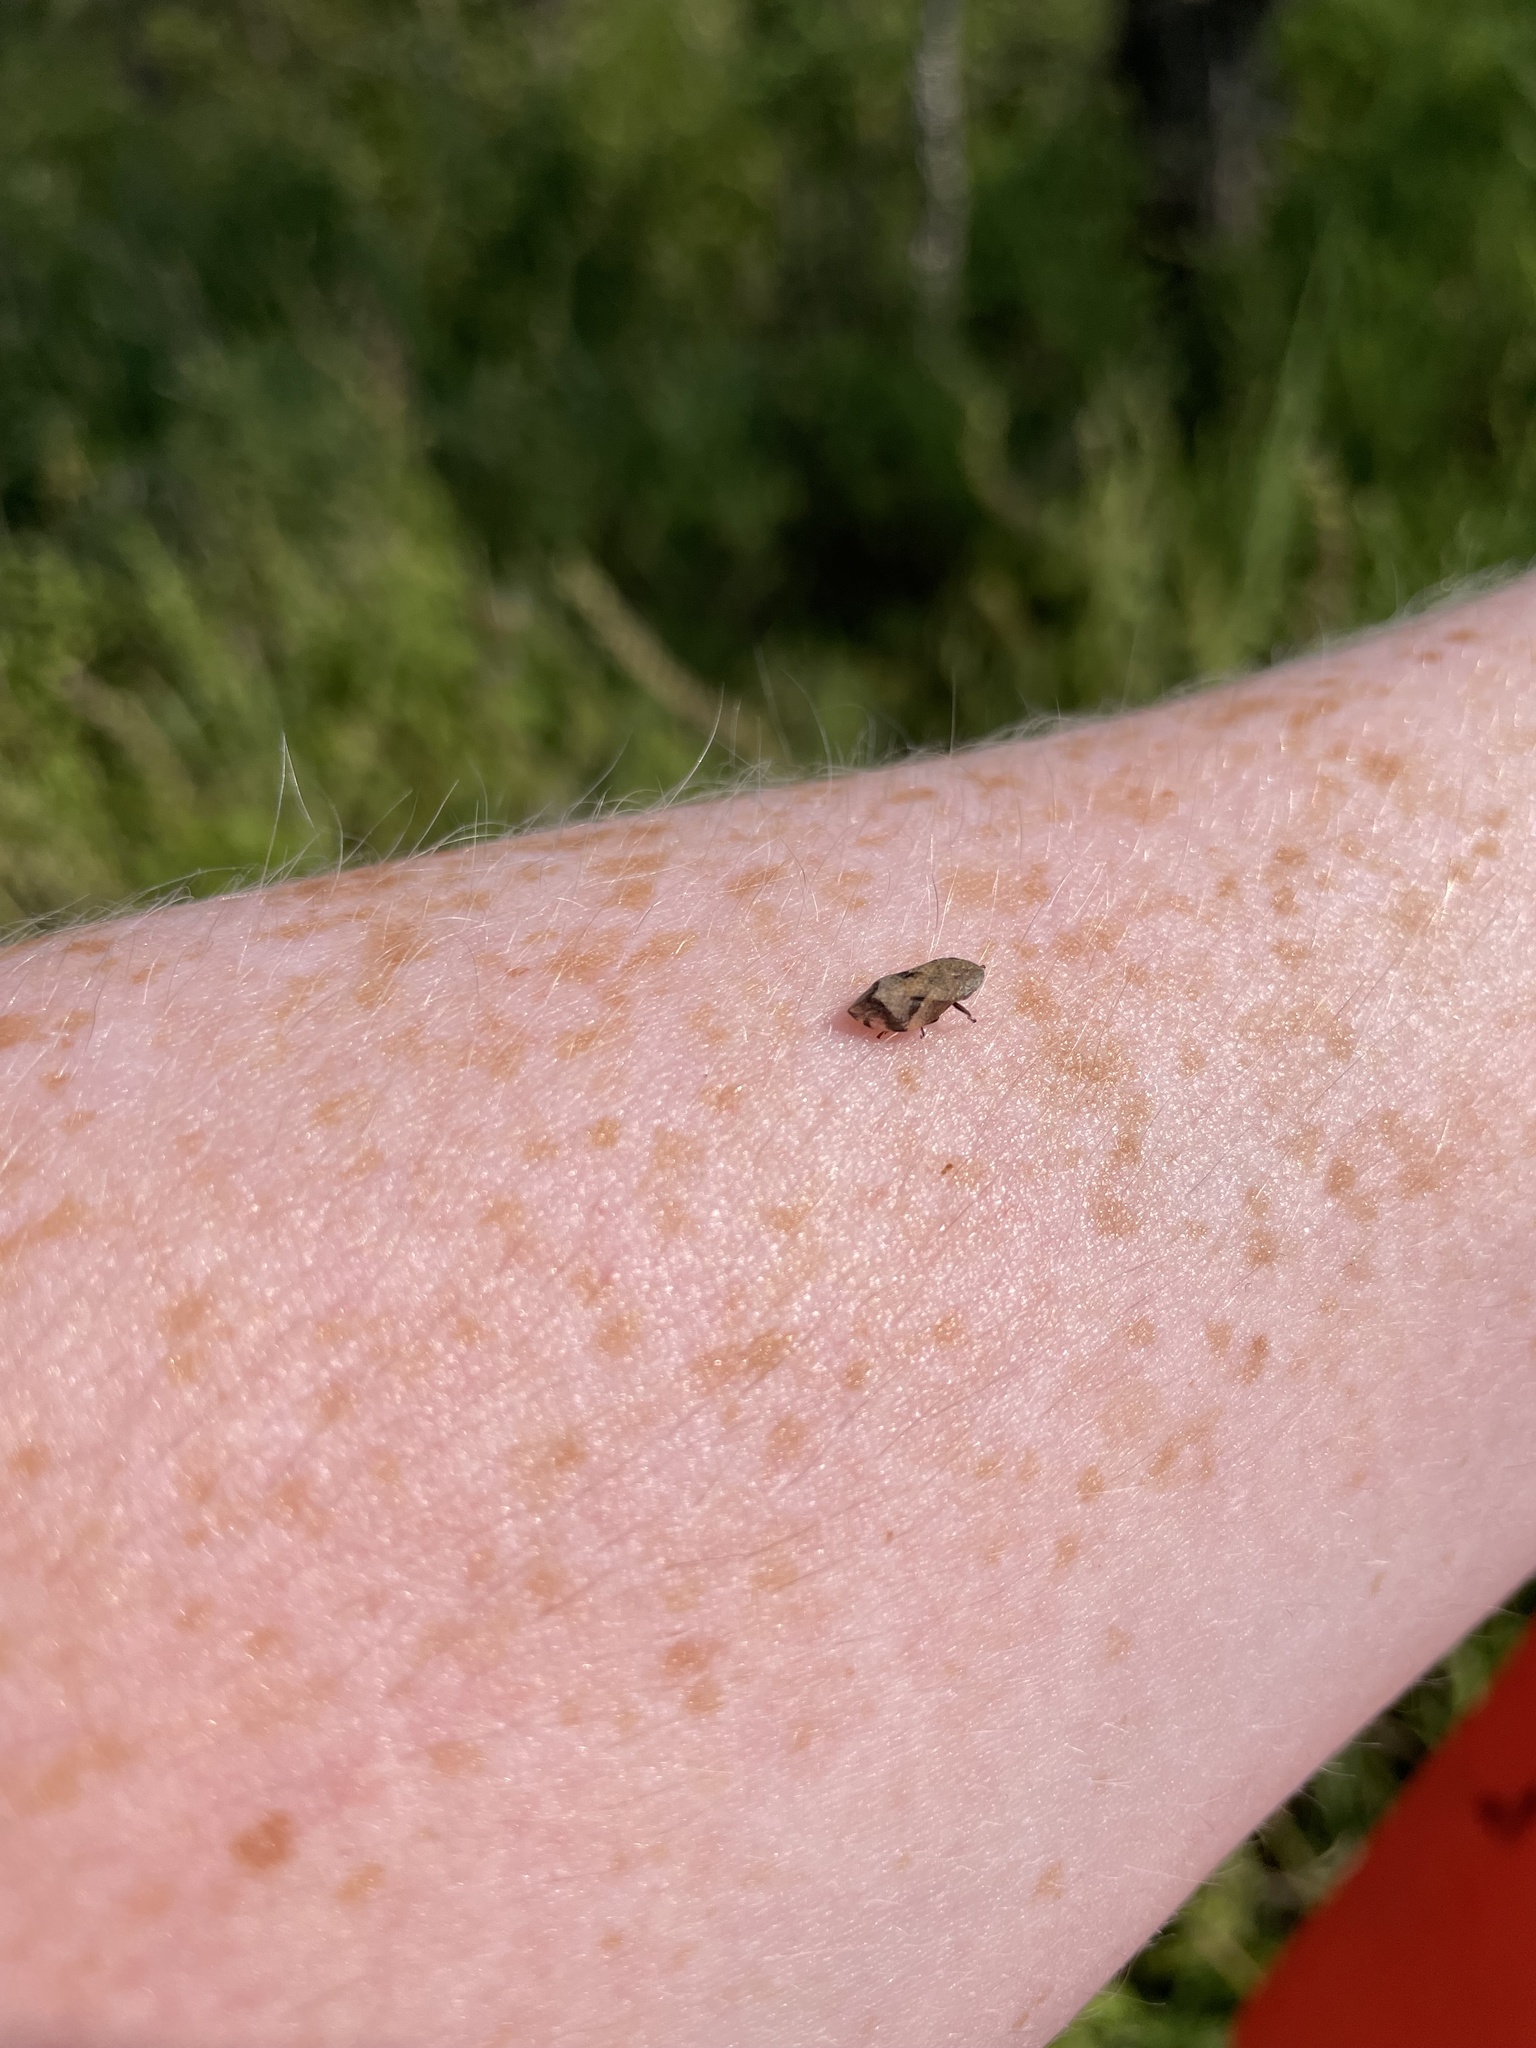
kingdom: Animalia
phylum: Arthropoda
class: Insecta
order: Hemiptera
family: Aphrophoridae
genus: Lepyronia
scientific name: Lepyronia quadrangularis
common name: Diamond-backed spittlebug
